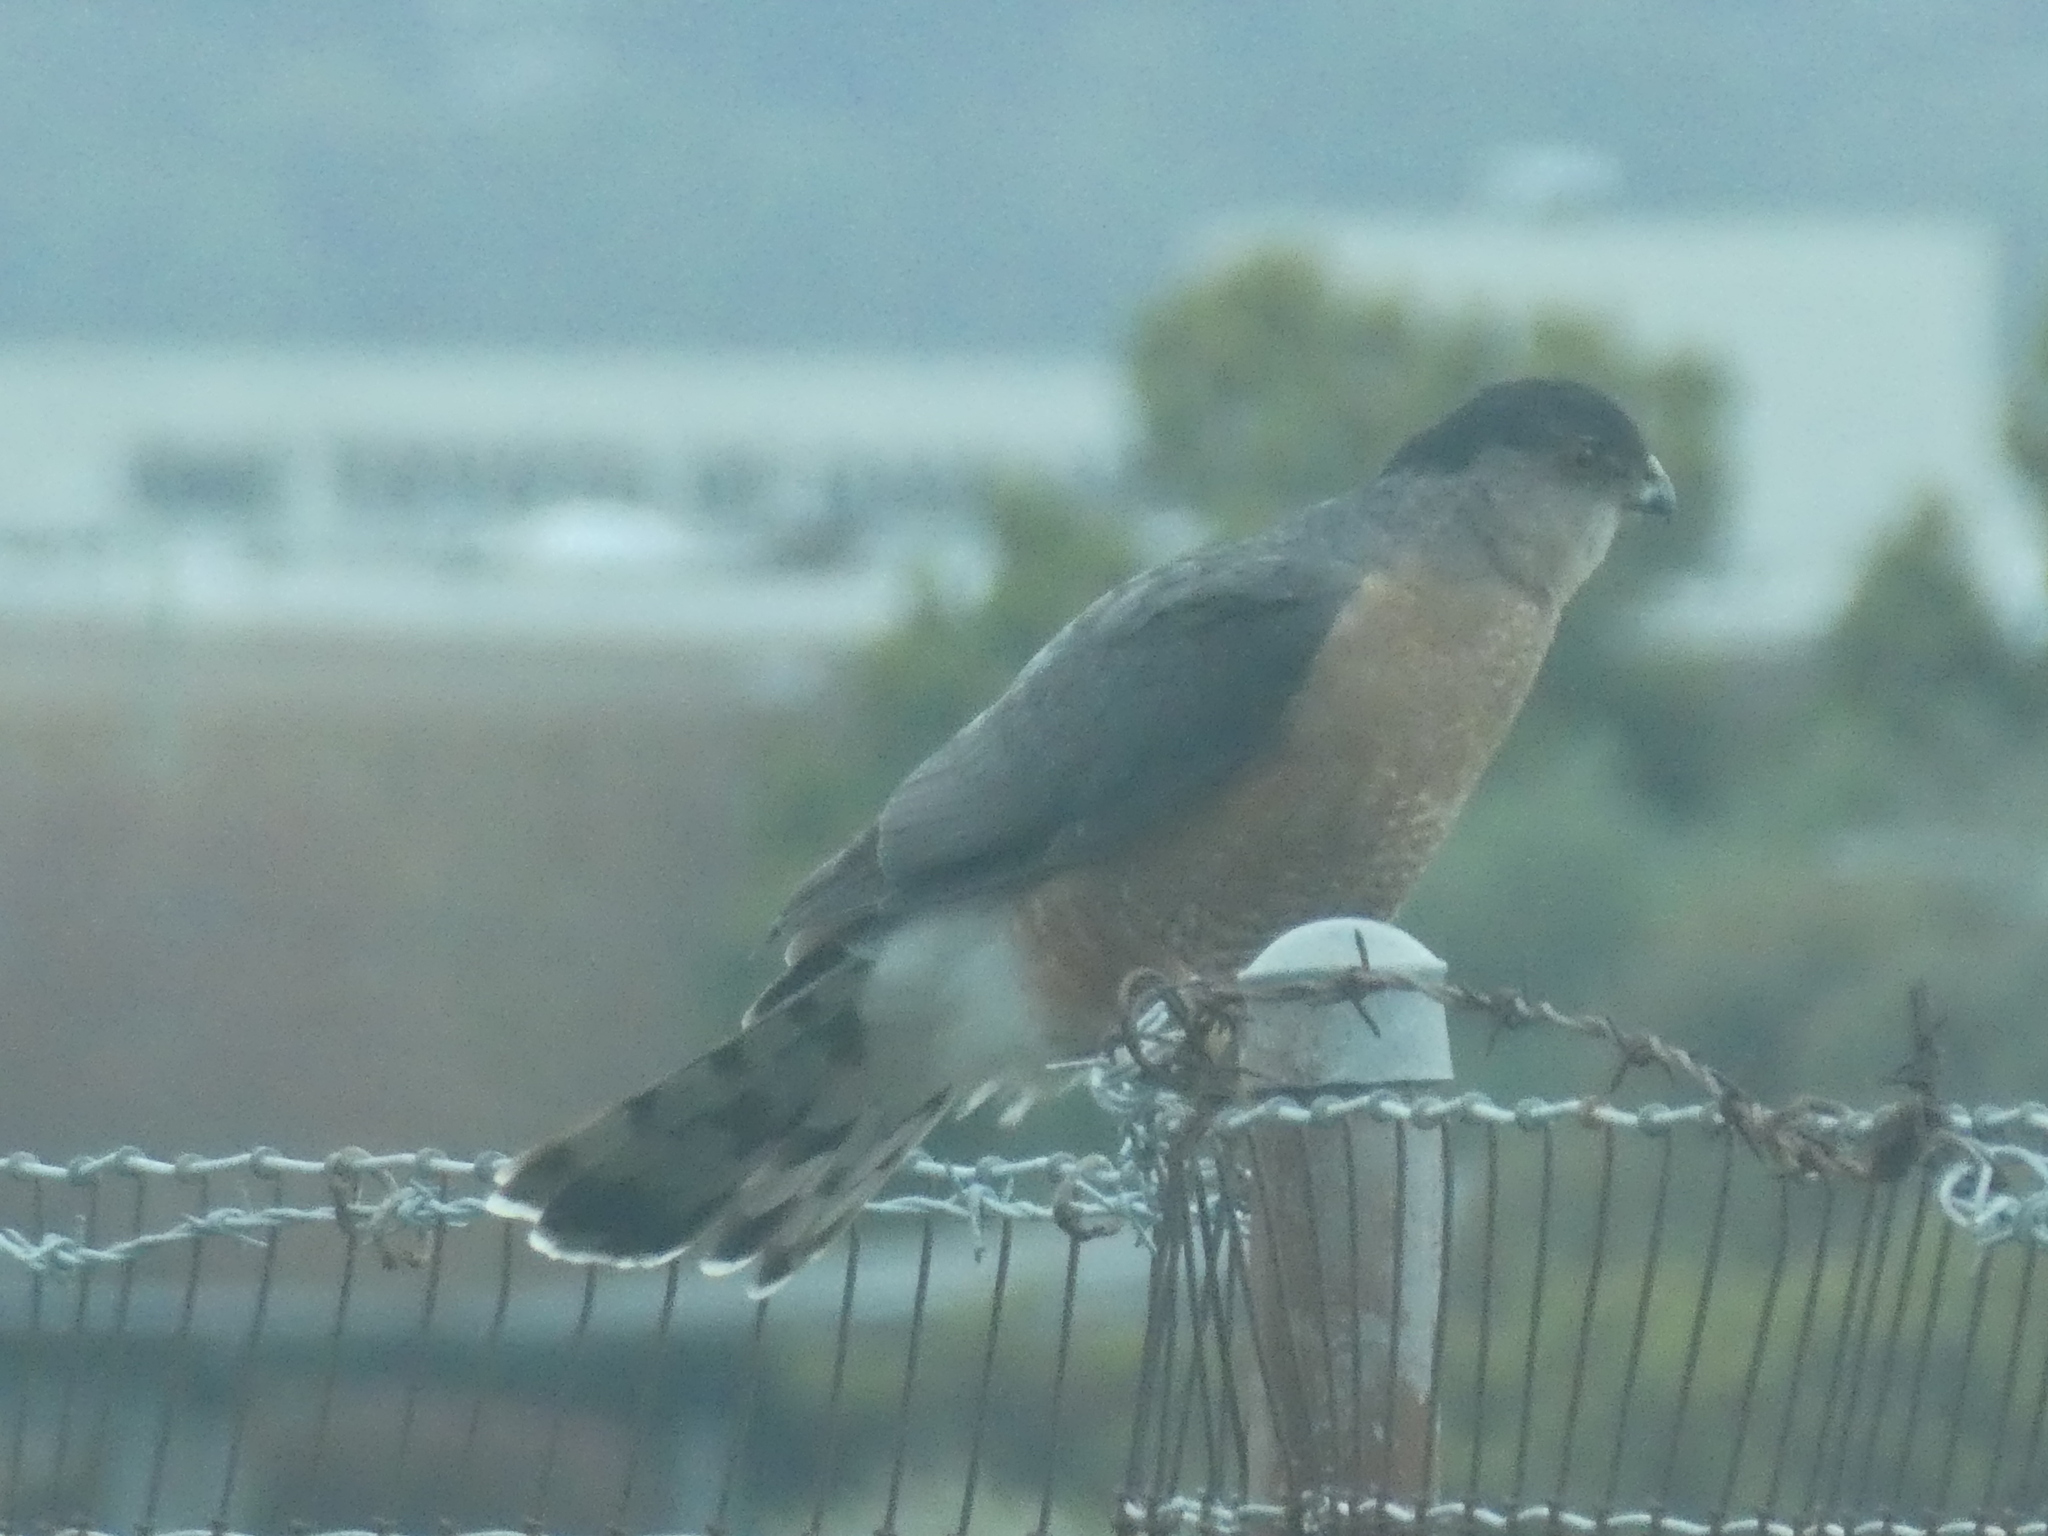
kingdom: Animalia
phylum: Chordata
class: Aves
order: Accipitriformes
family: Accipitridae
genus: Accipiter
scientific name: Accipiter cooperii
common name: Cooper's hawk
